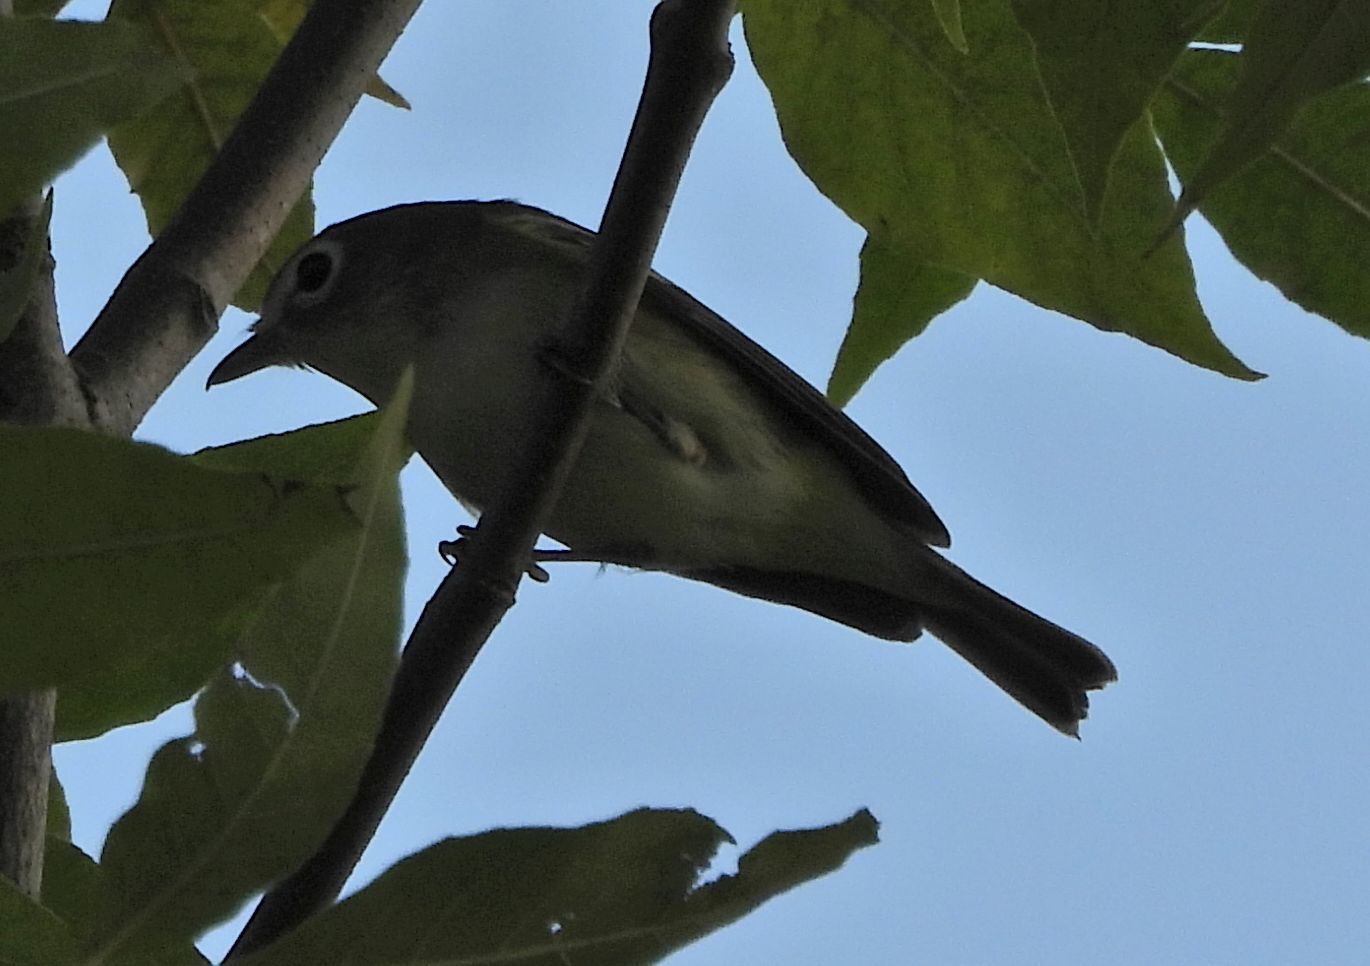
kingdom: Animalia
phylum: Chordata
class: Aves
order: Passeriformes
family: Vireonidae
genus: Vireo
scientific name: Vireo solitarius
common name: Blue-headed vireo
